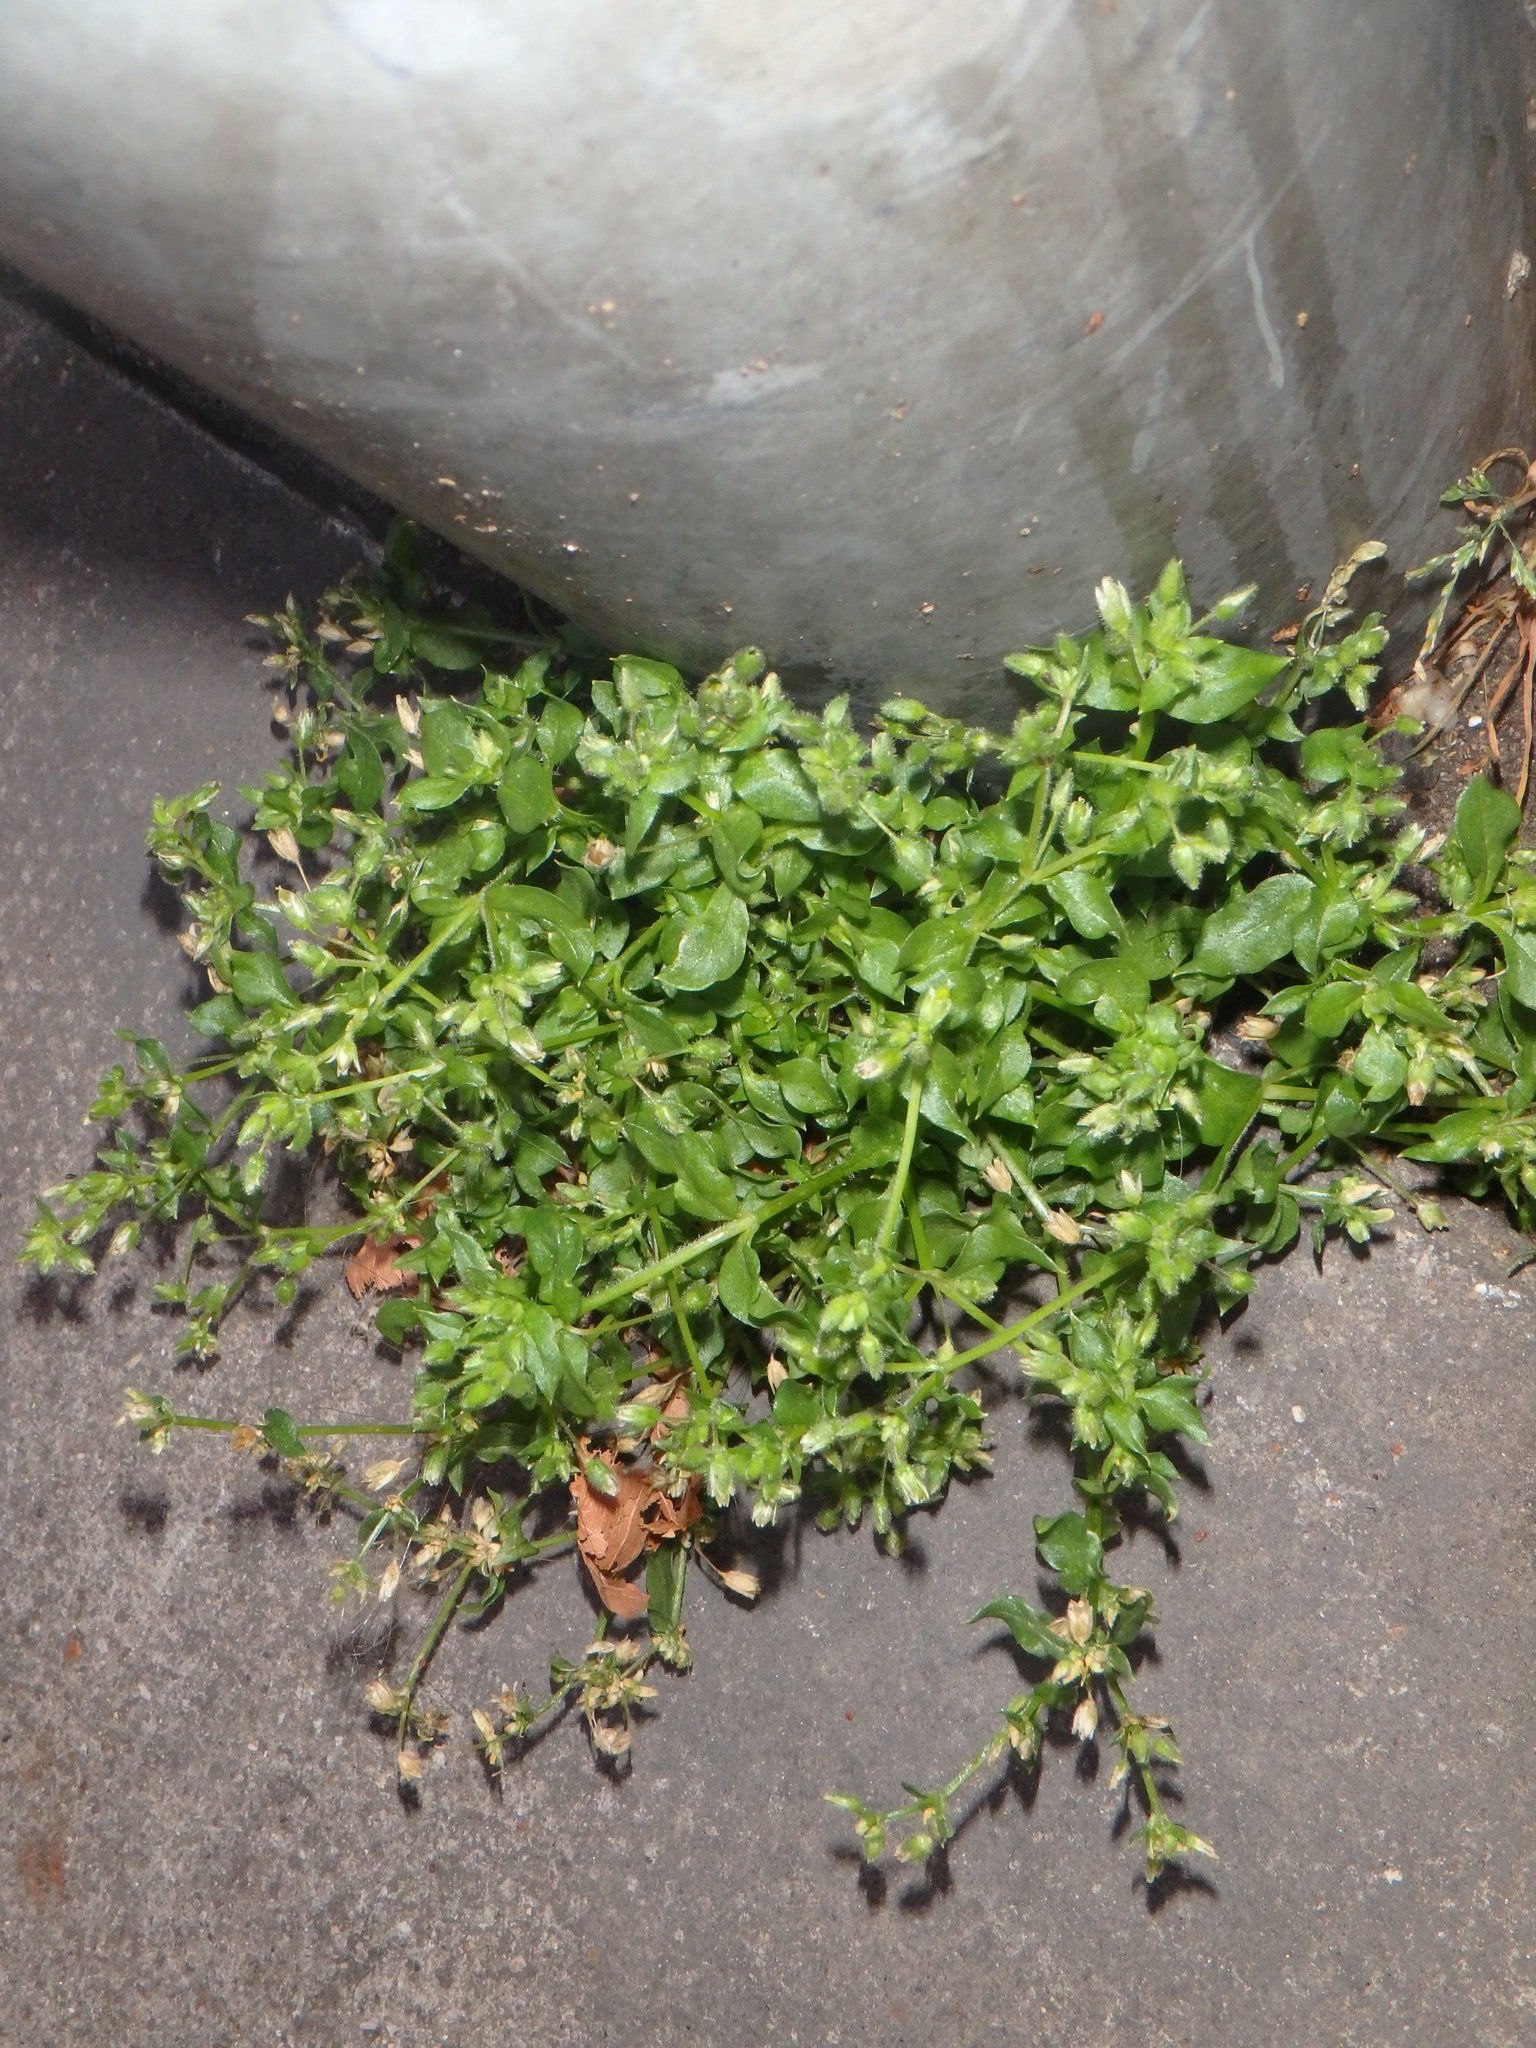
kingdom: Plantae
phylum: Tracheophyta
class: Magnoliopsida
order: Caryophyllales
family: Caryophyllaceae
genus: Stellaria
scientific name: Stellaria media
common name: Common chickweed
